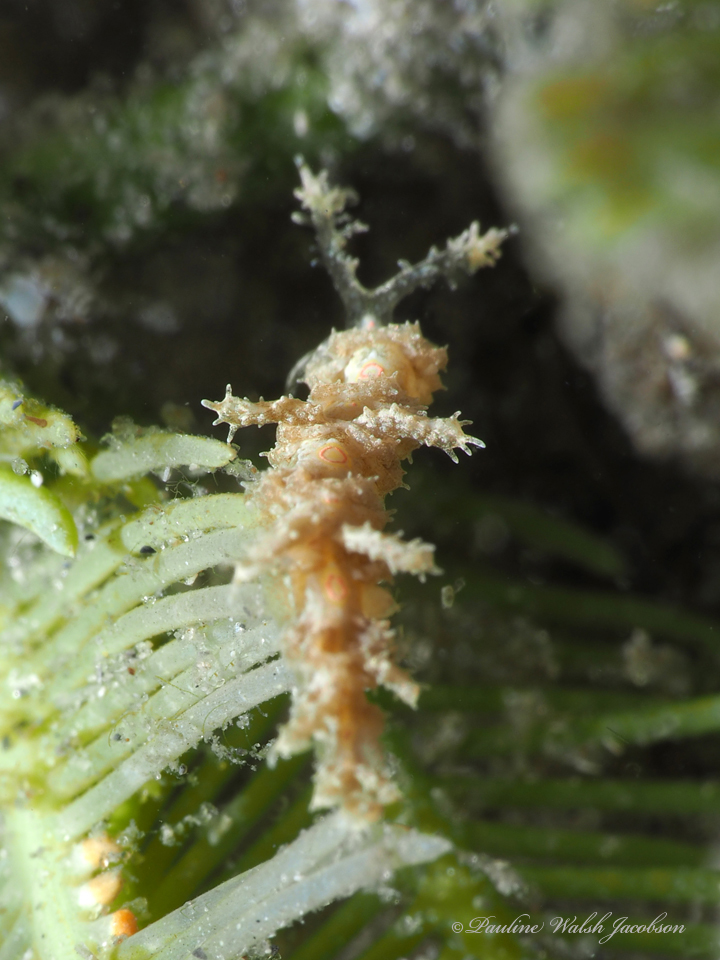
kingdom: Animalia
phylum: Mollusca
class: Gastropoda
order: Nudibranchia
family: Aeolidiidae
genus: Limenandra
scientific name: Limenandra nodosa
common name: Warty baeolidia
